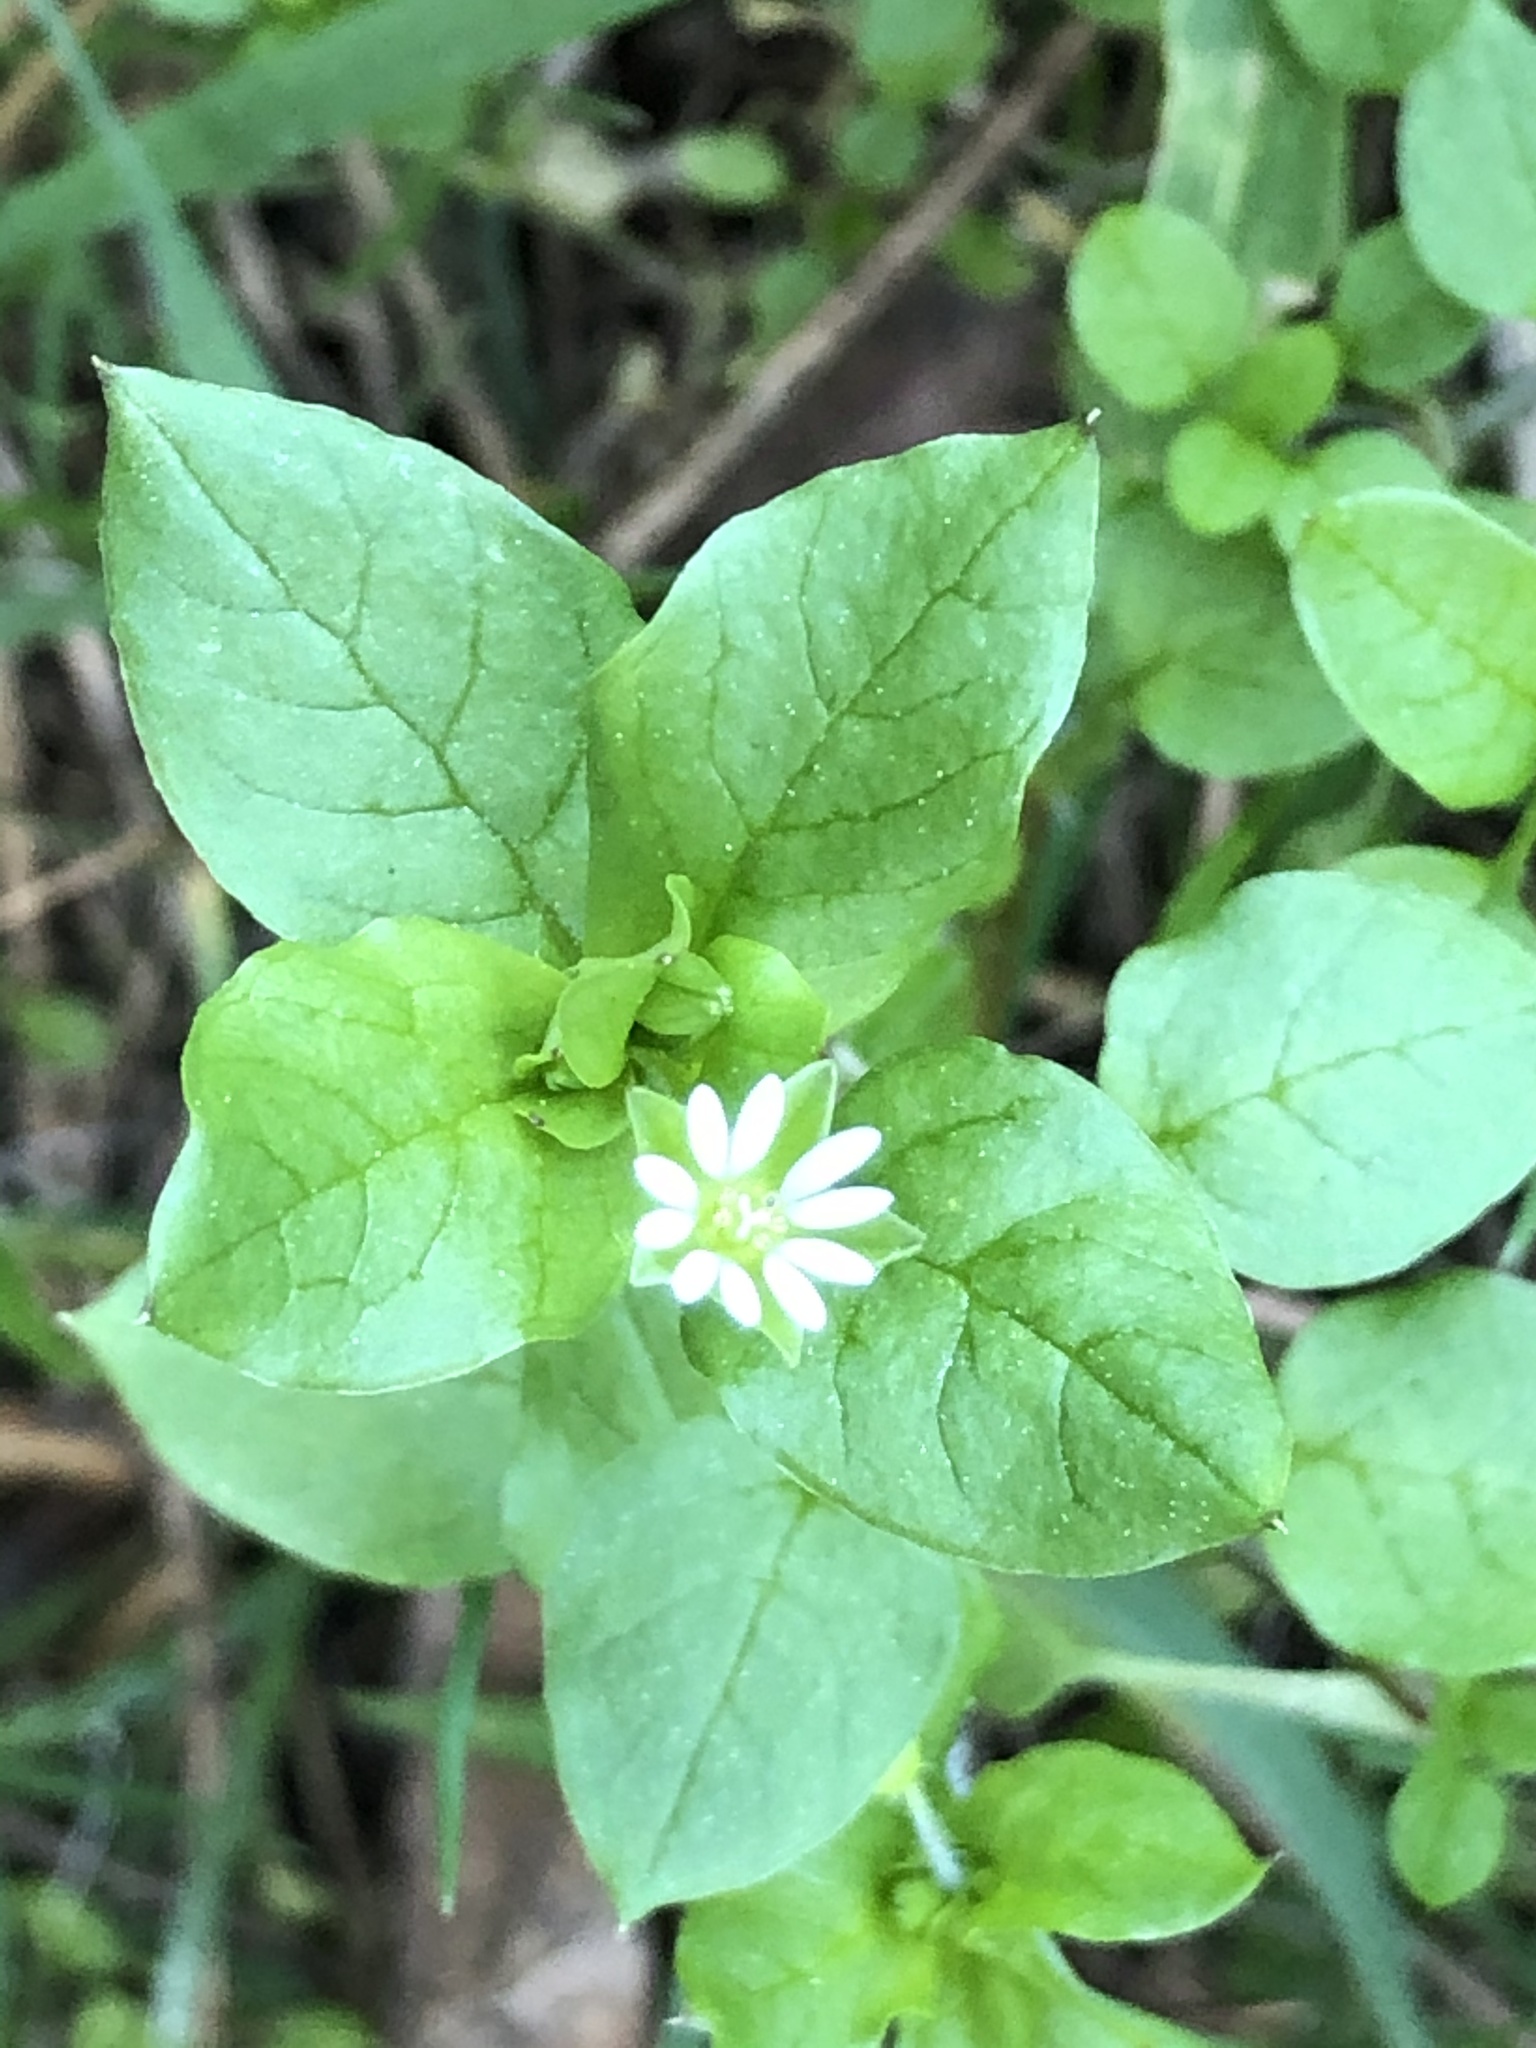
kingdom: Plantae
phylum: Tracheophyta
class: Magnoliopsida
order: Caryophyllales
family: Caryophyllaceae
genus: Stellaria
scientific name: Stellaria media
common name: Common chickweed
